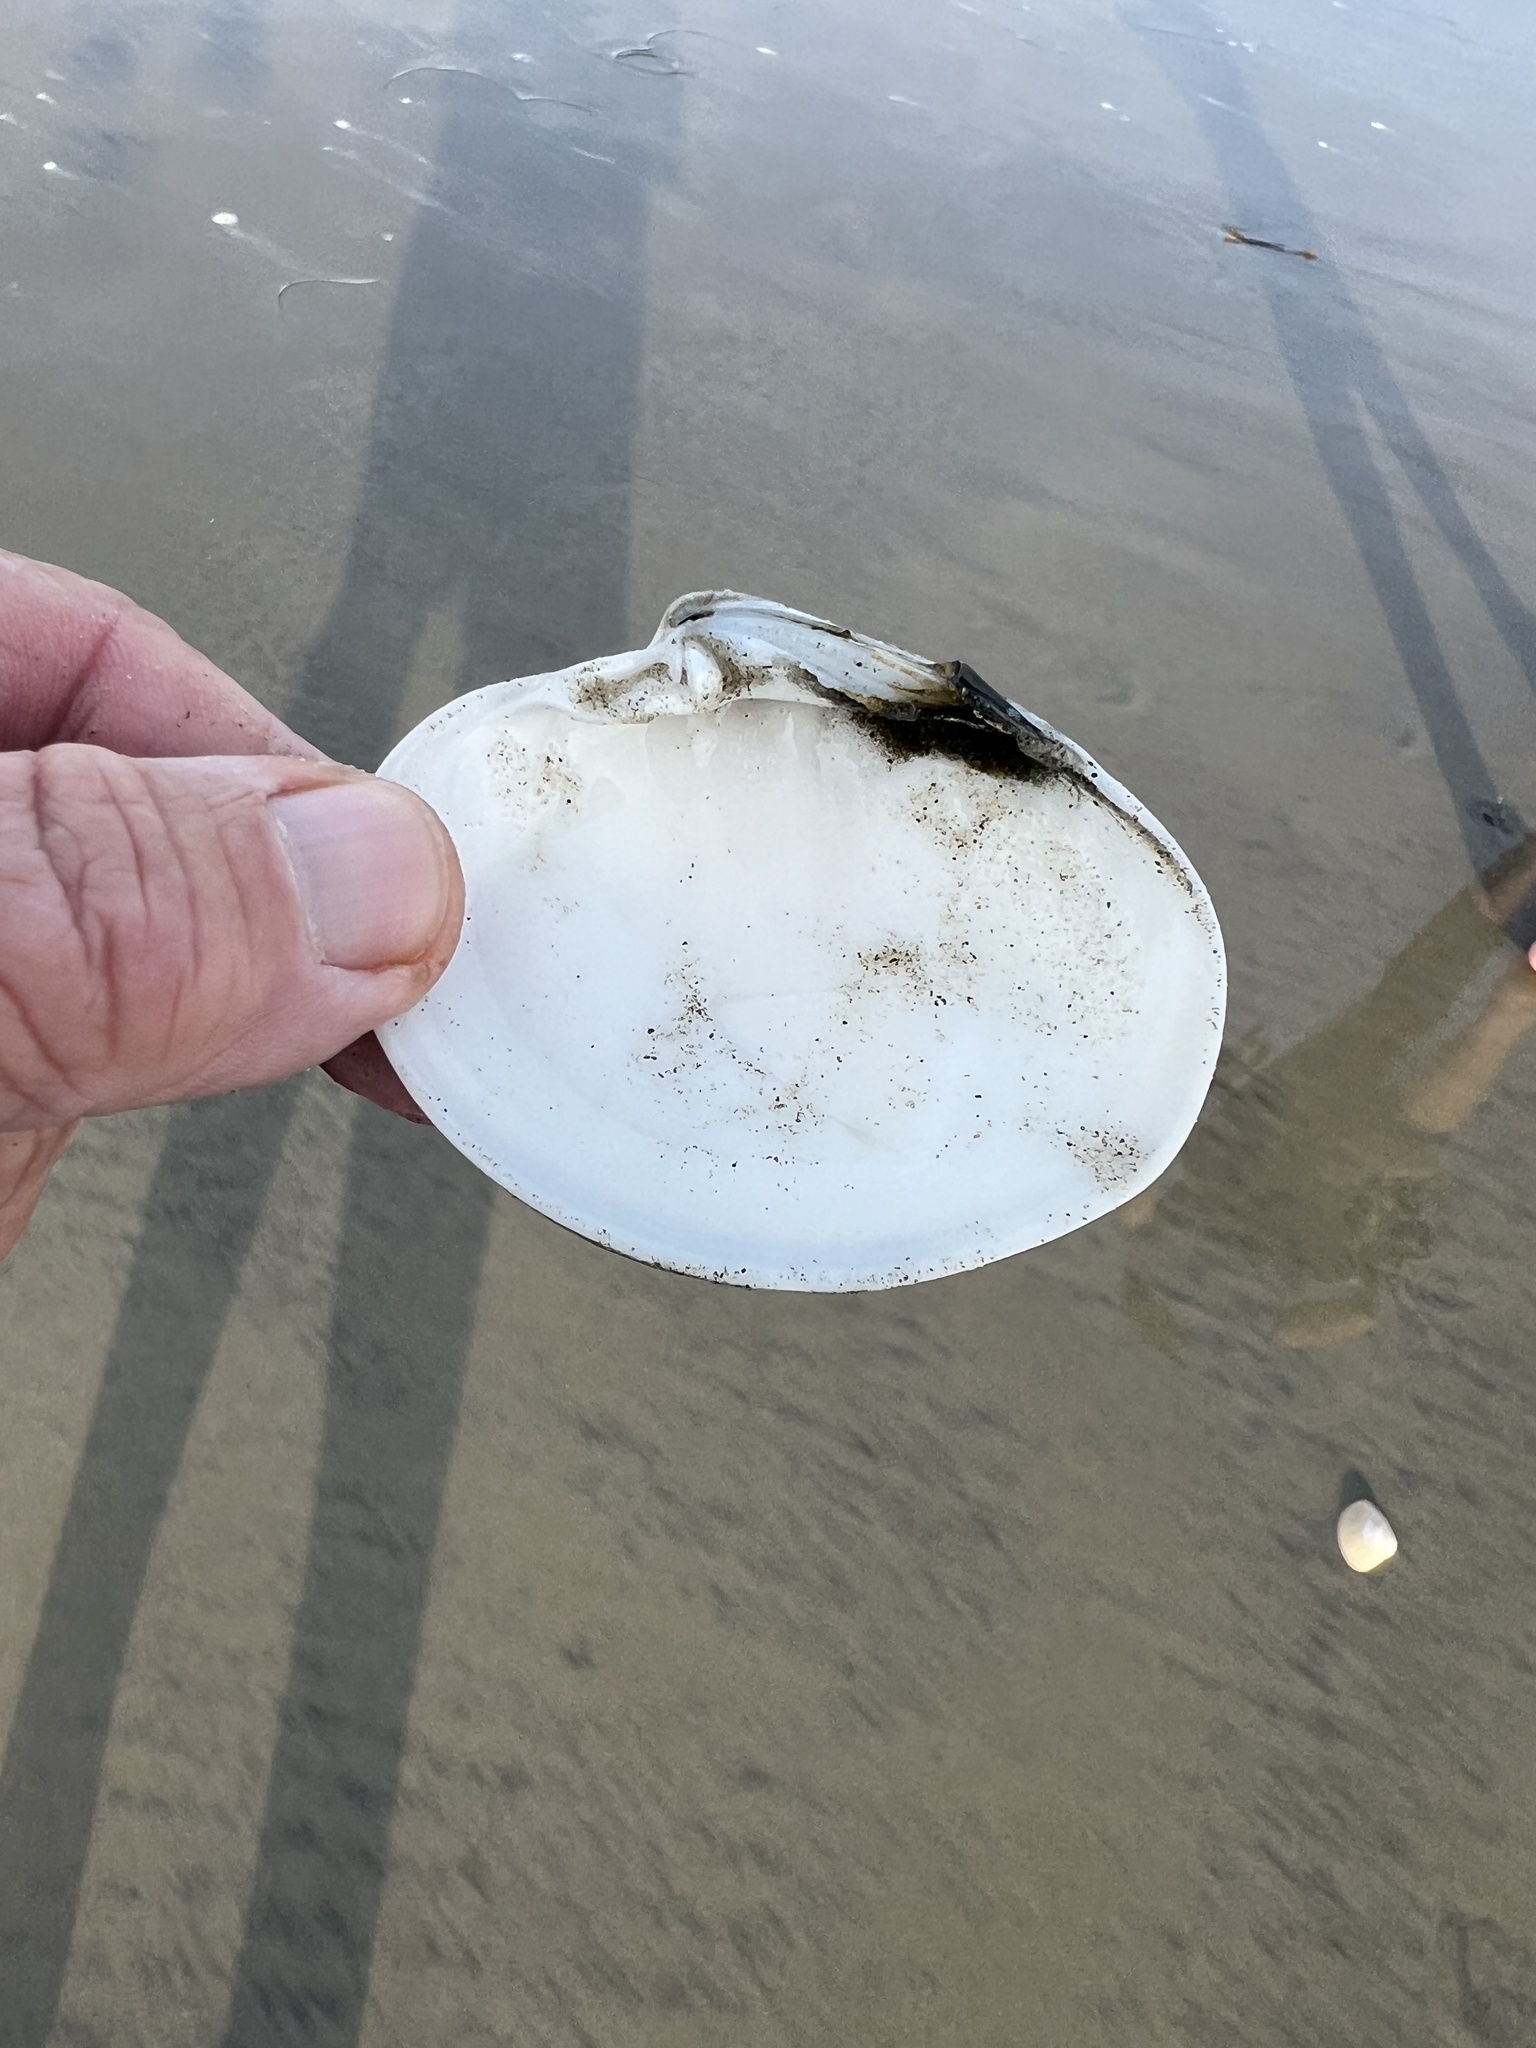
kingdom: Animalia
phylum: Mollusca
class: Bivalvia
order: Venerida
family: Veneridae
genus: Amiantis
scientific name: Amiantis callosa
